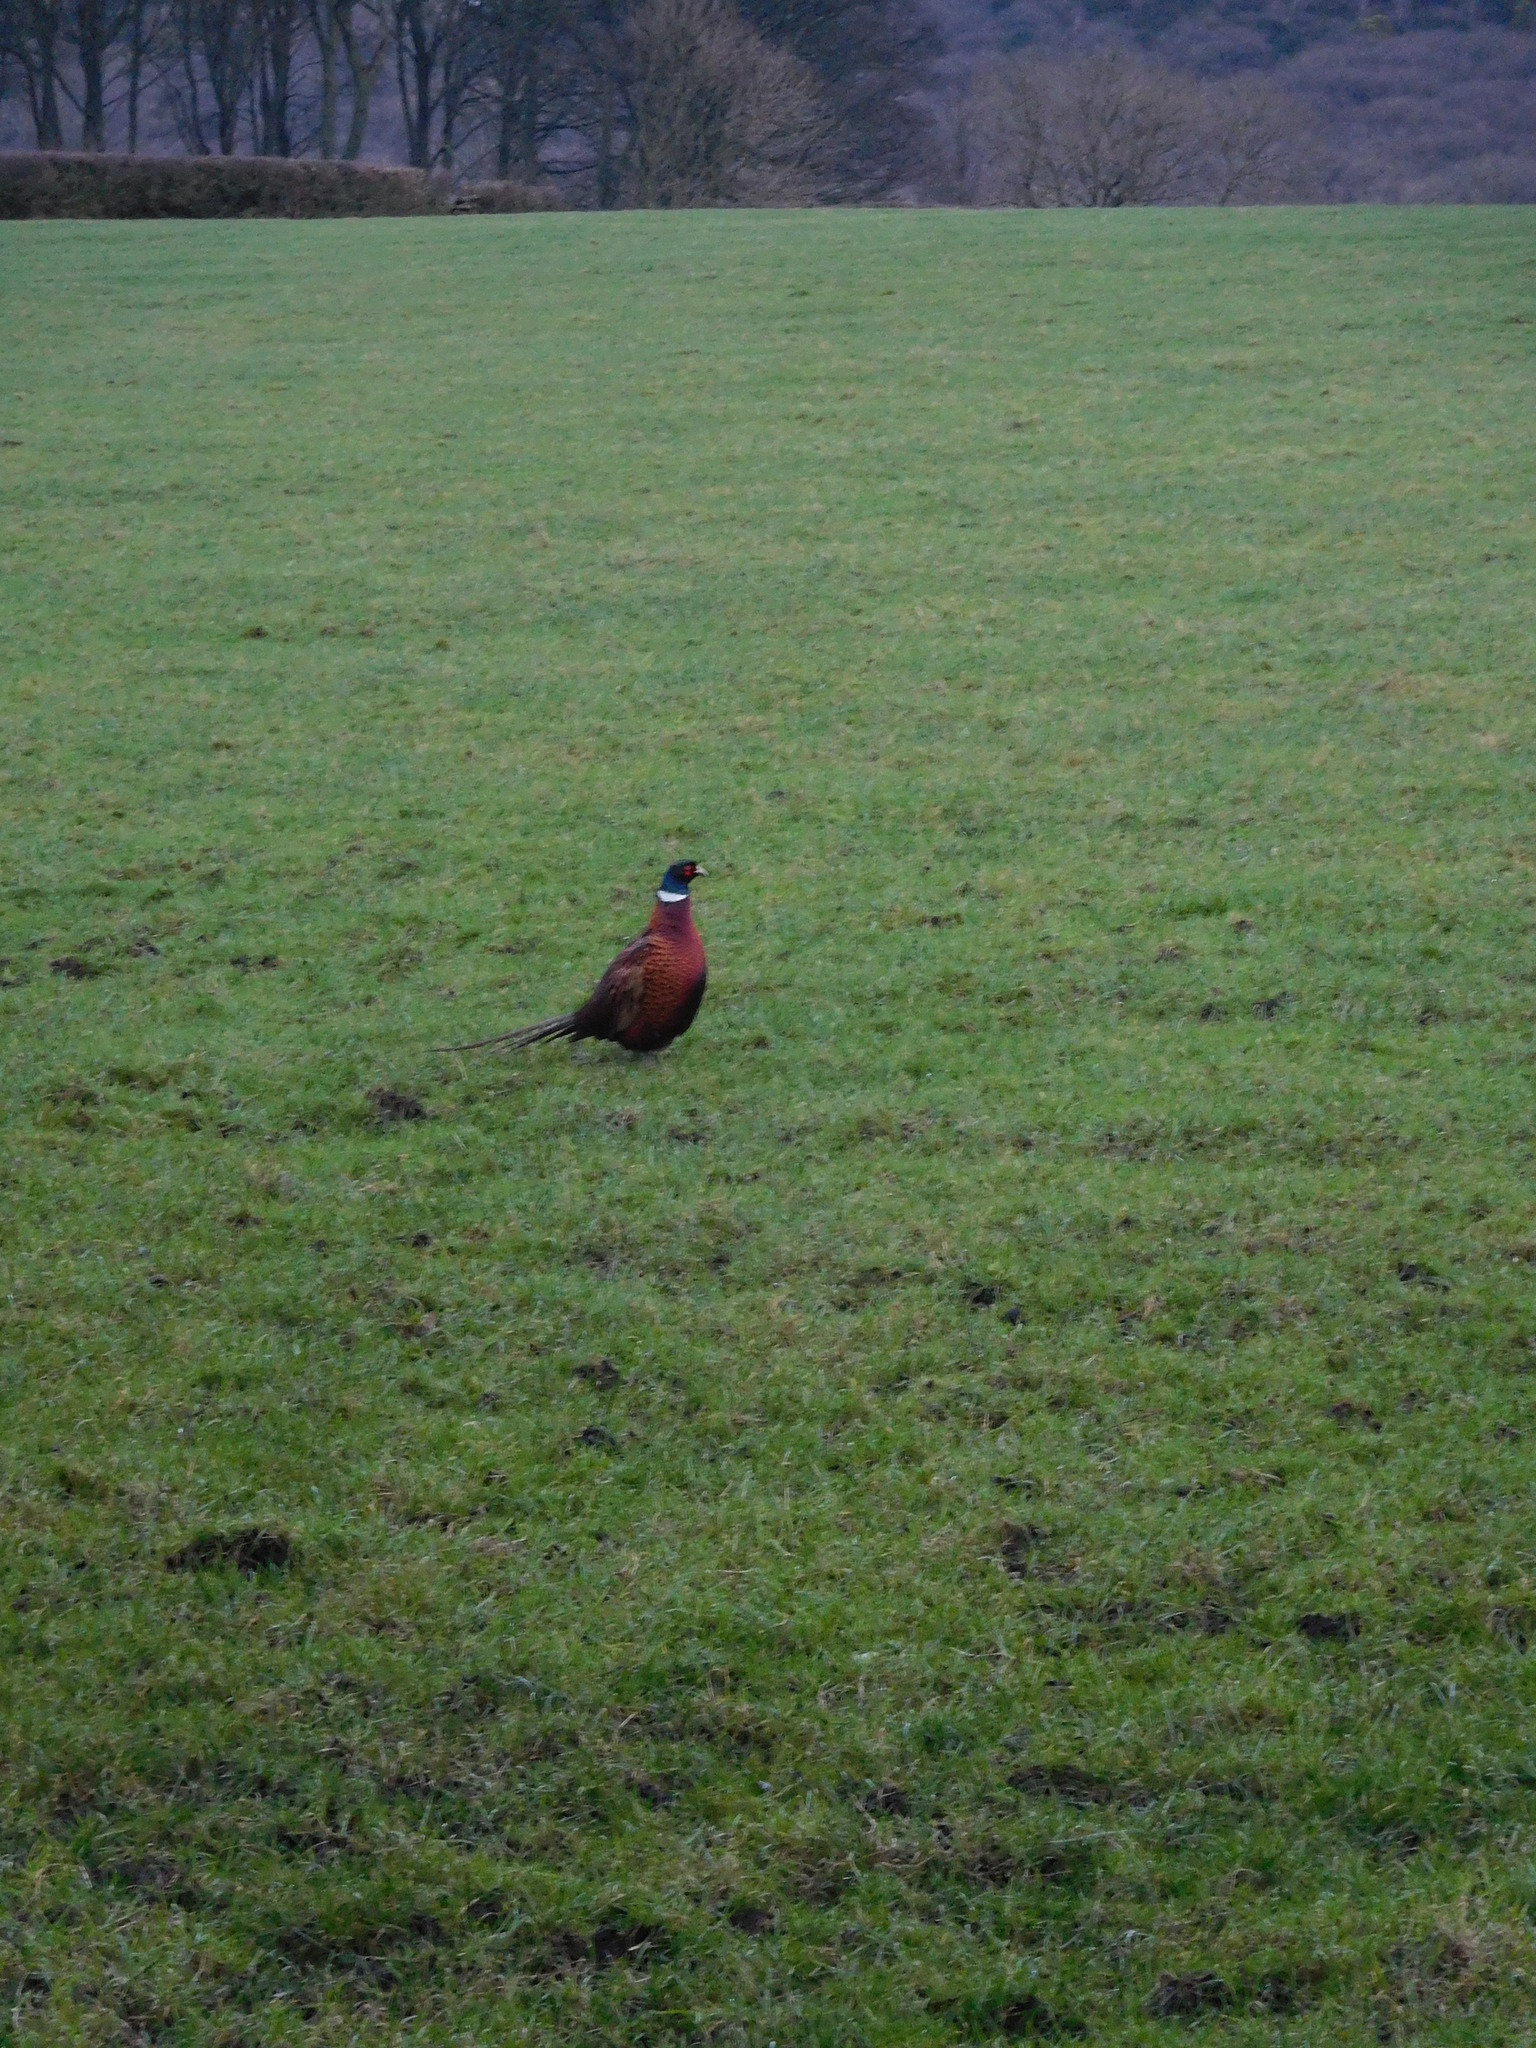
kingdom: Animalia
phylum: Chordata
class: Aves
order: Galliformes
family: Phasianidae
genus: Phasianus
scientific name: Phasianus colchicus
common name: Common pheasant
